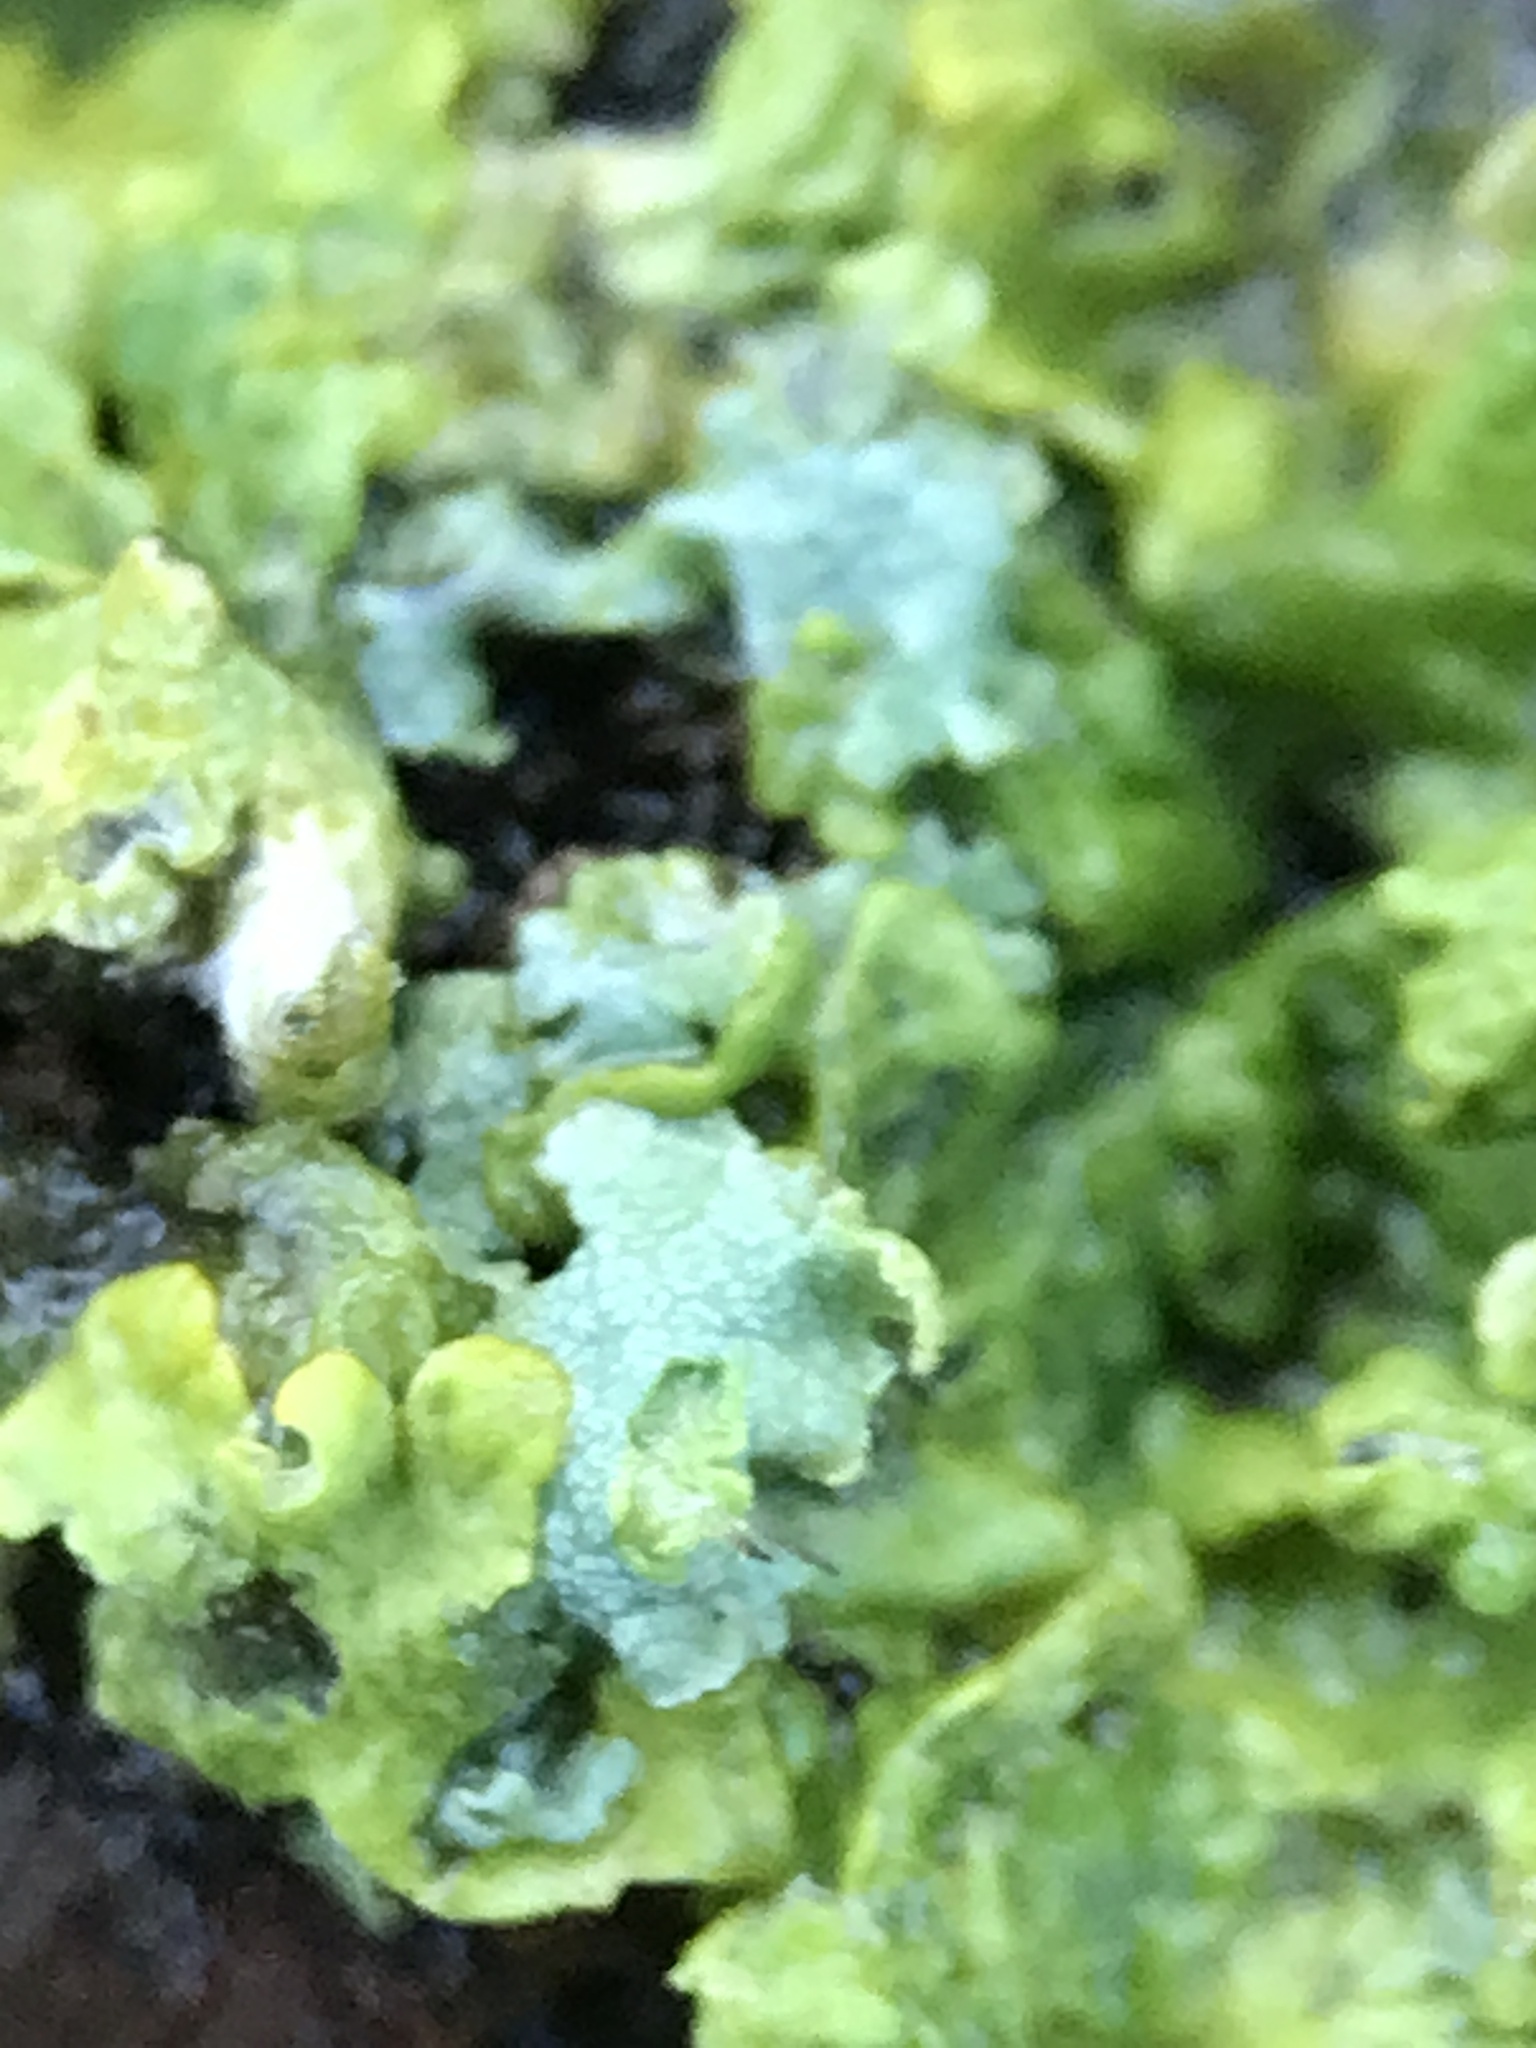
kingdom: Fungi
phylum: Ascomycota
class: Lecanoromycetes
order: Teloschistales
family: Teloschistaceae
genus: Xanthoria
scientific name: Xanthoria parietina
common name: Common orange lichen
